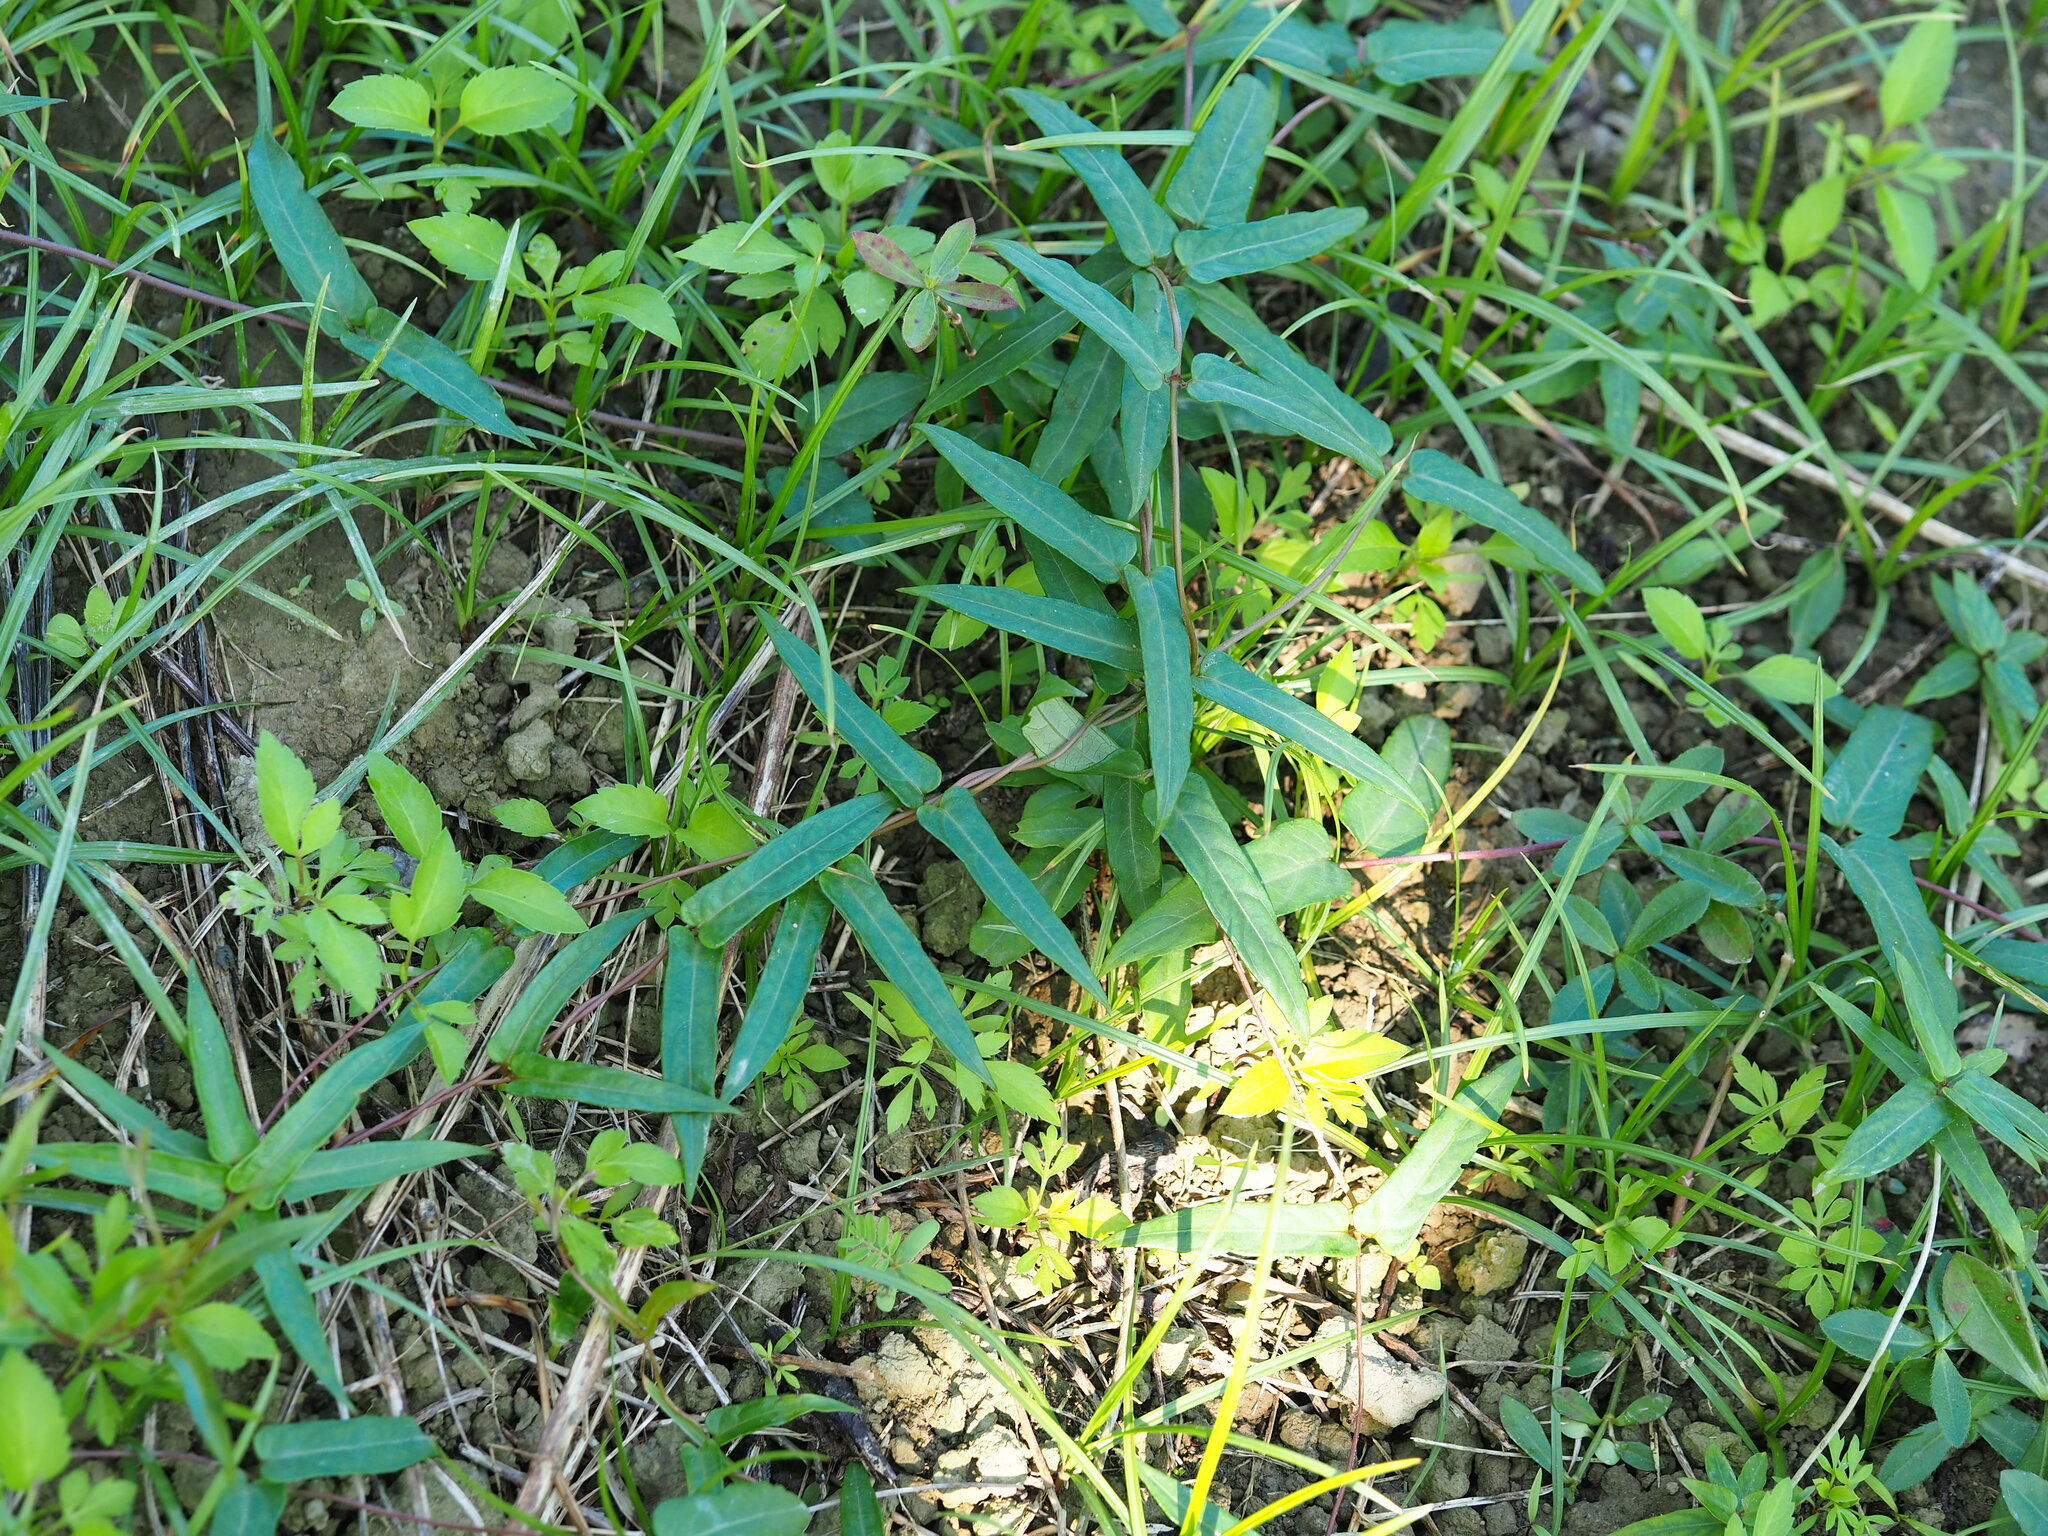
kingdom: Plantae
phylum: Tracheophyta
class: Magnoliopsida
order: Gentianales
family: Rubiaceae
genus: Paederia
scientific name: Paederia foetida
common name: Stinkvine
